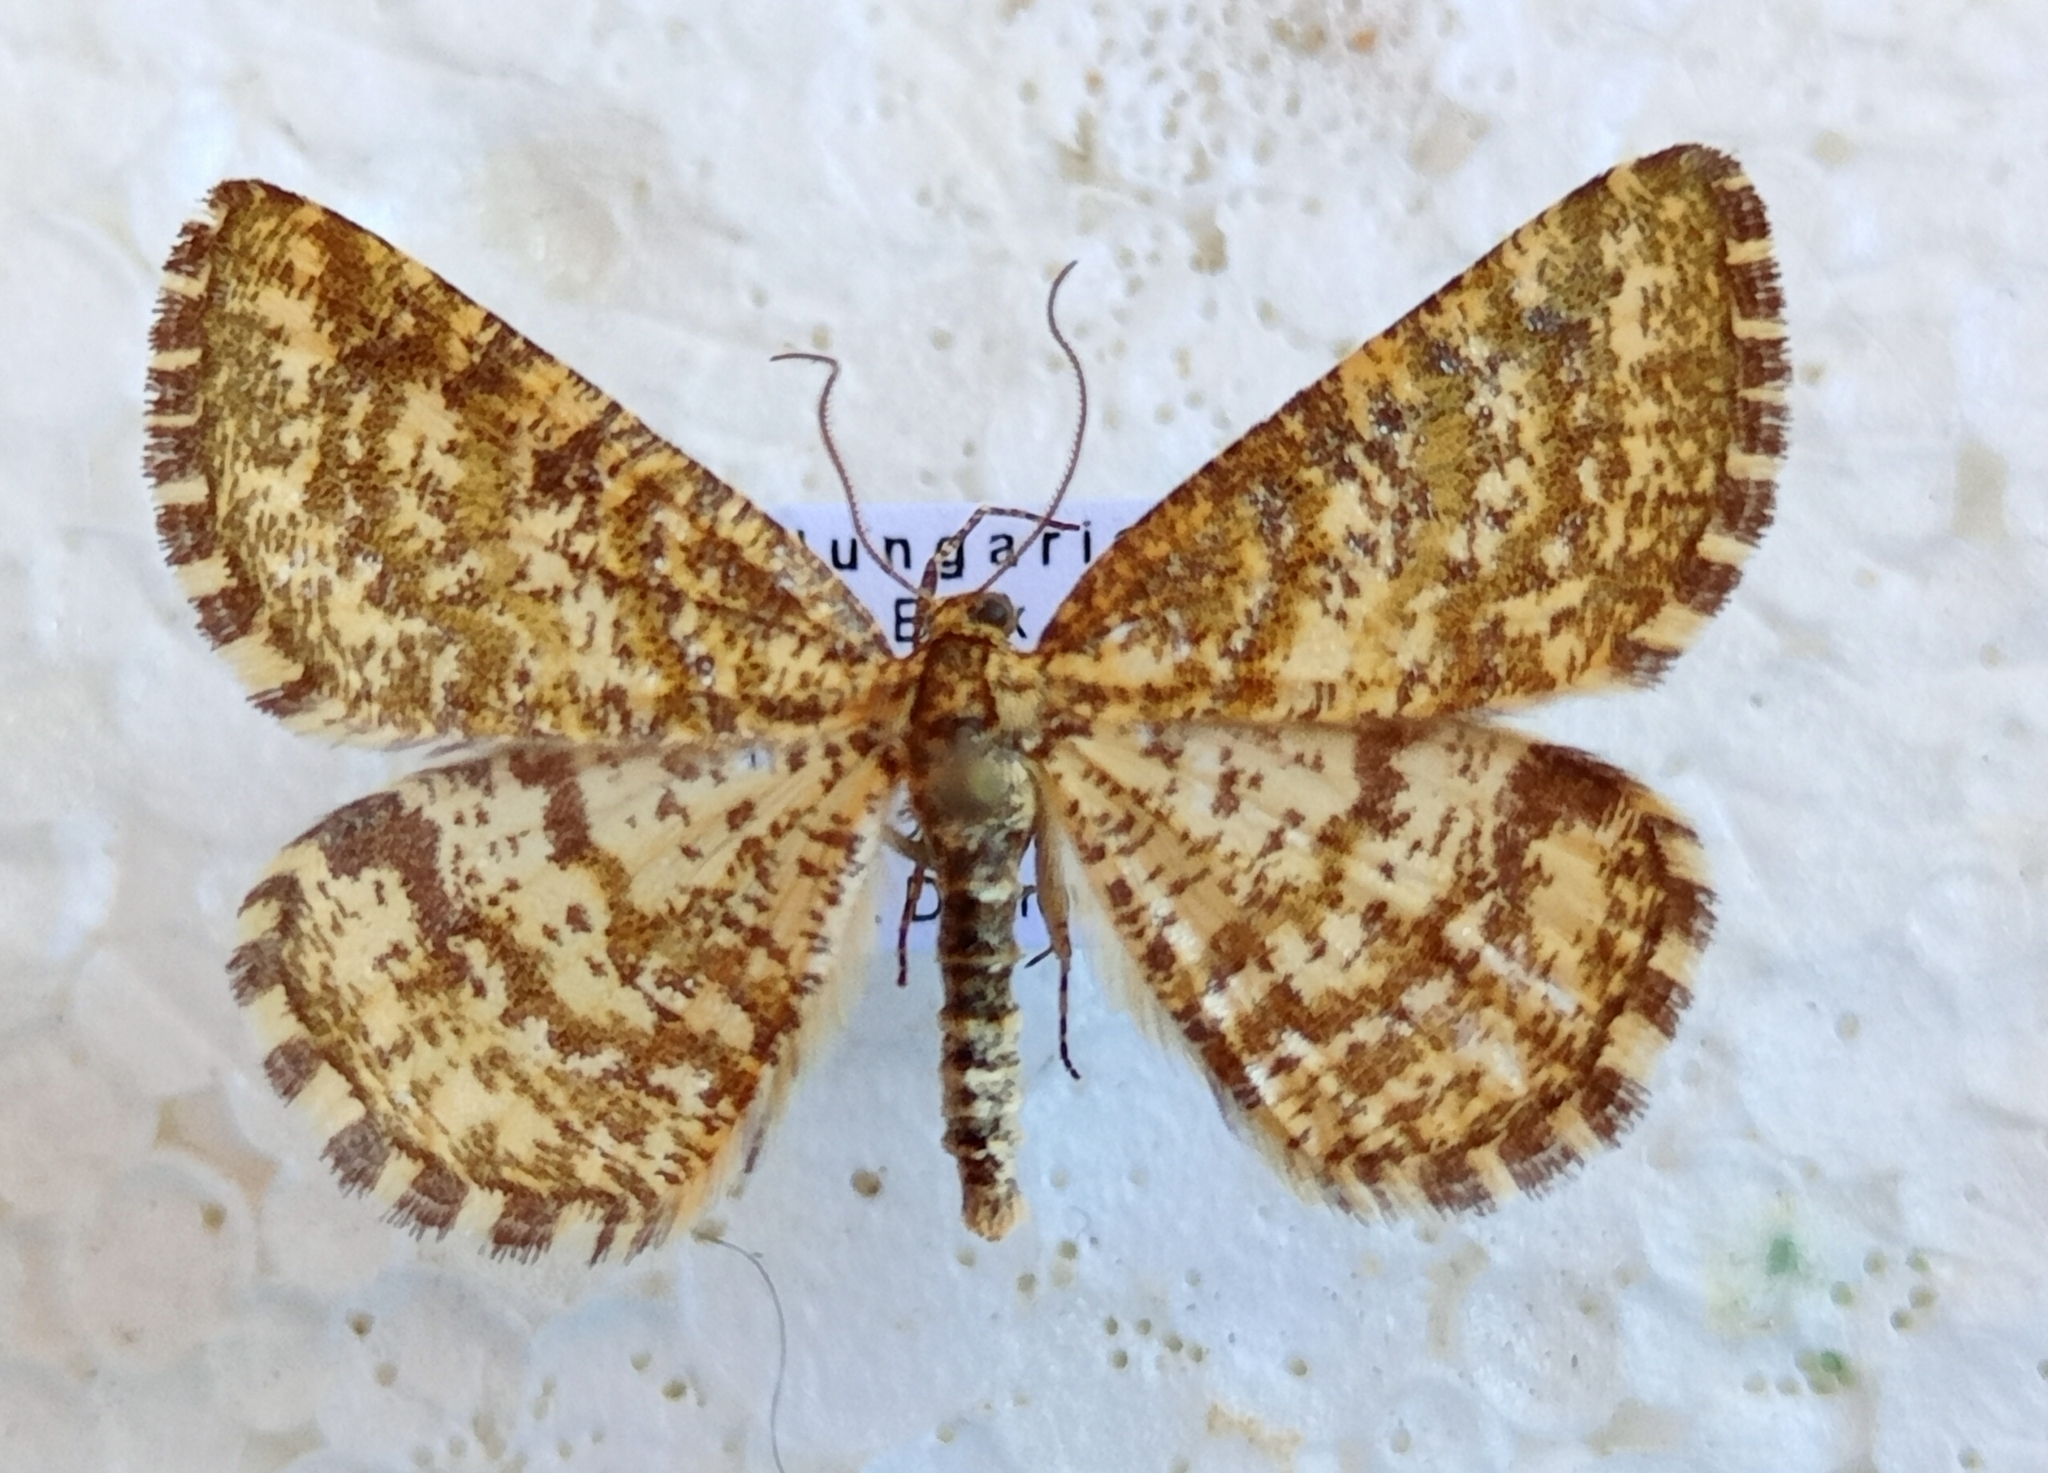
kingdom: Animalia
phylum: Arthropoda
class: Insecta
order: Lepidoptera
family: Geometridae
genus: Heliomata
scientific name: Heliomata glarearia
